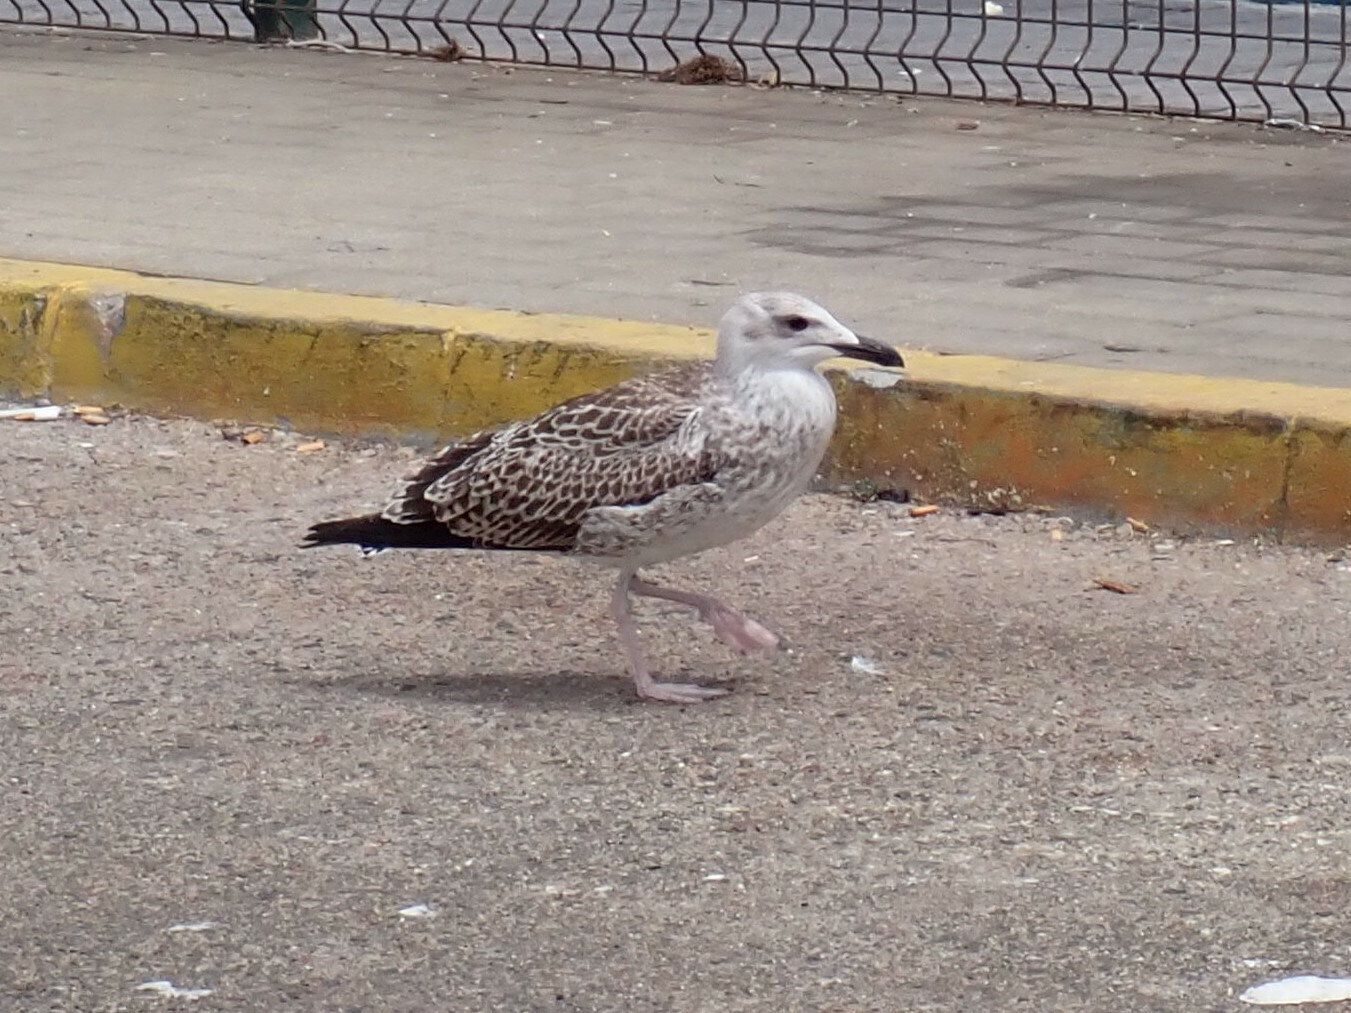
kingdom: Animalia
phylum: Chordata
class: Aves
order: Charadriiformes
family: Laridae
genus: Larus
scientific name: Larus michahellis
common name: Yellow-legged gull
